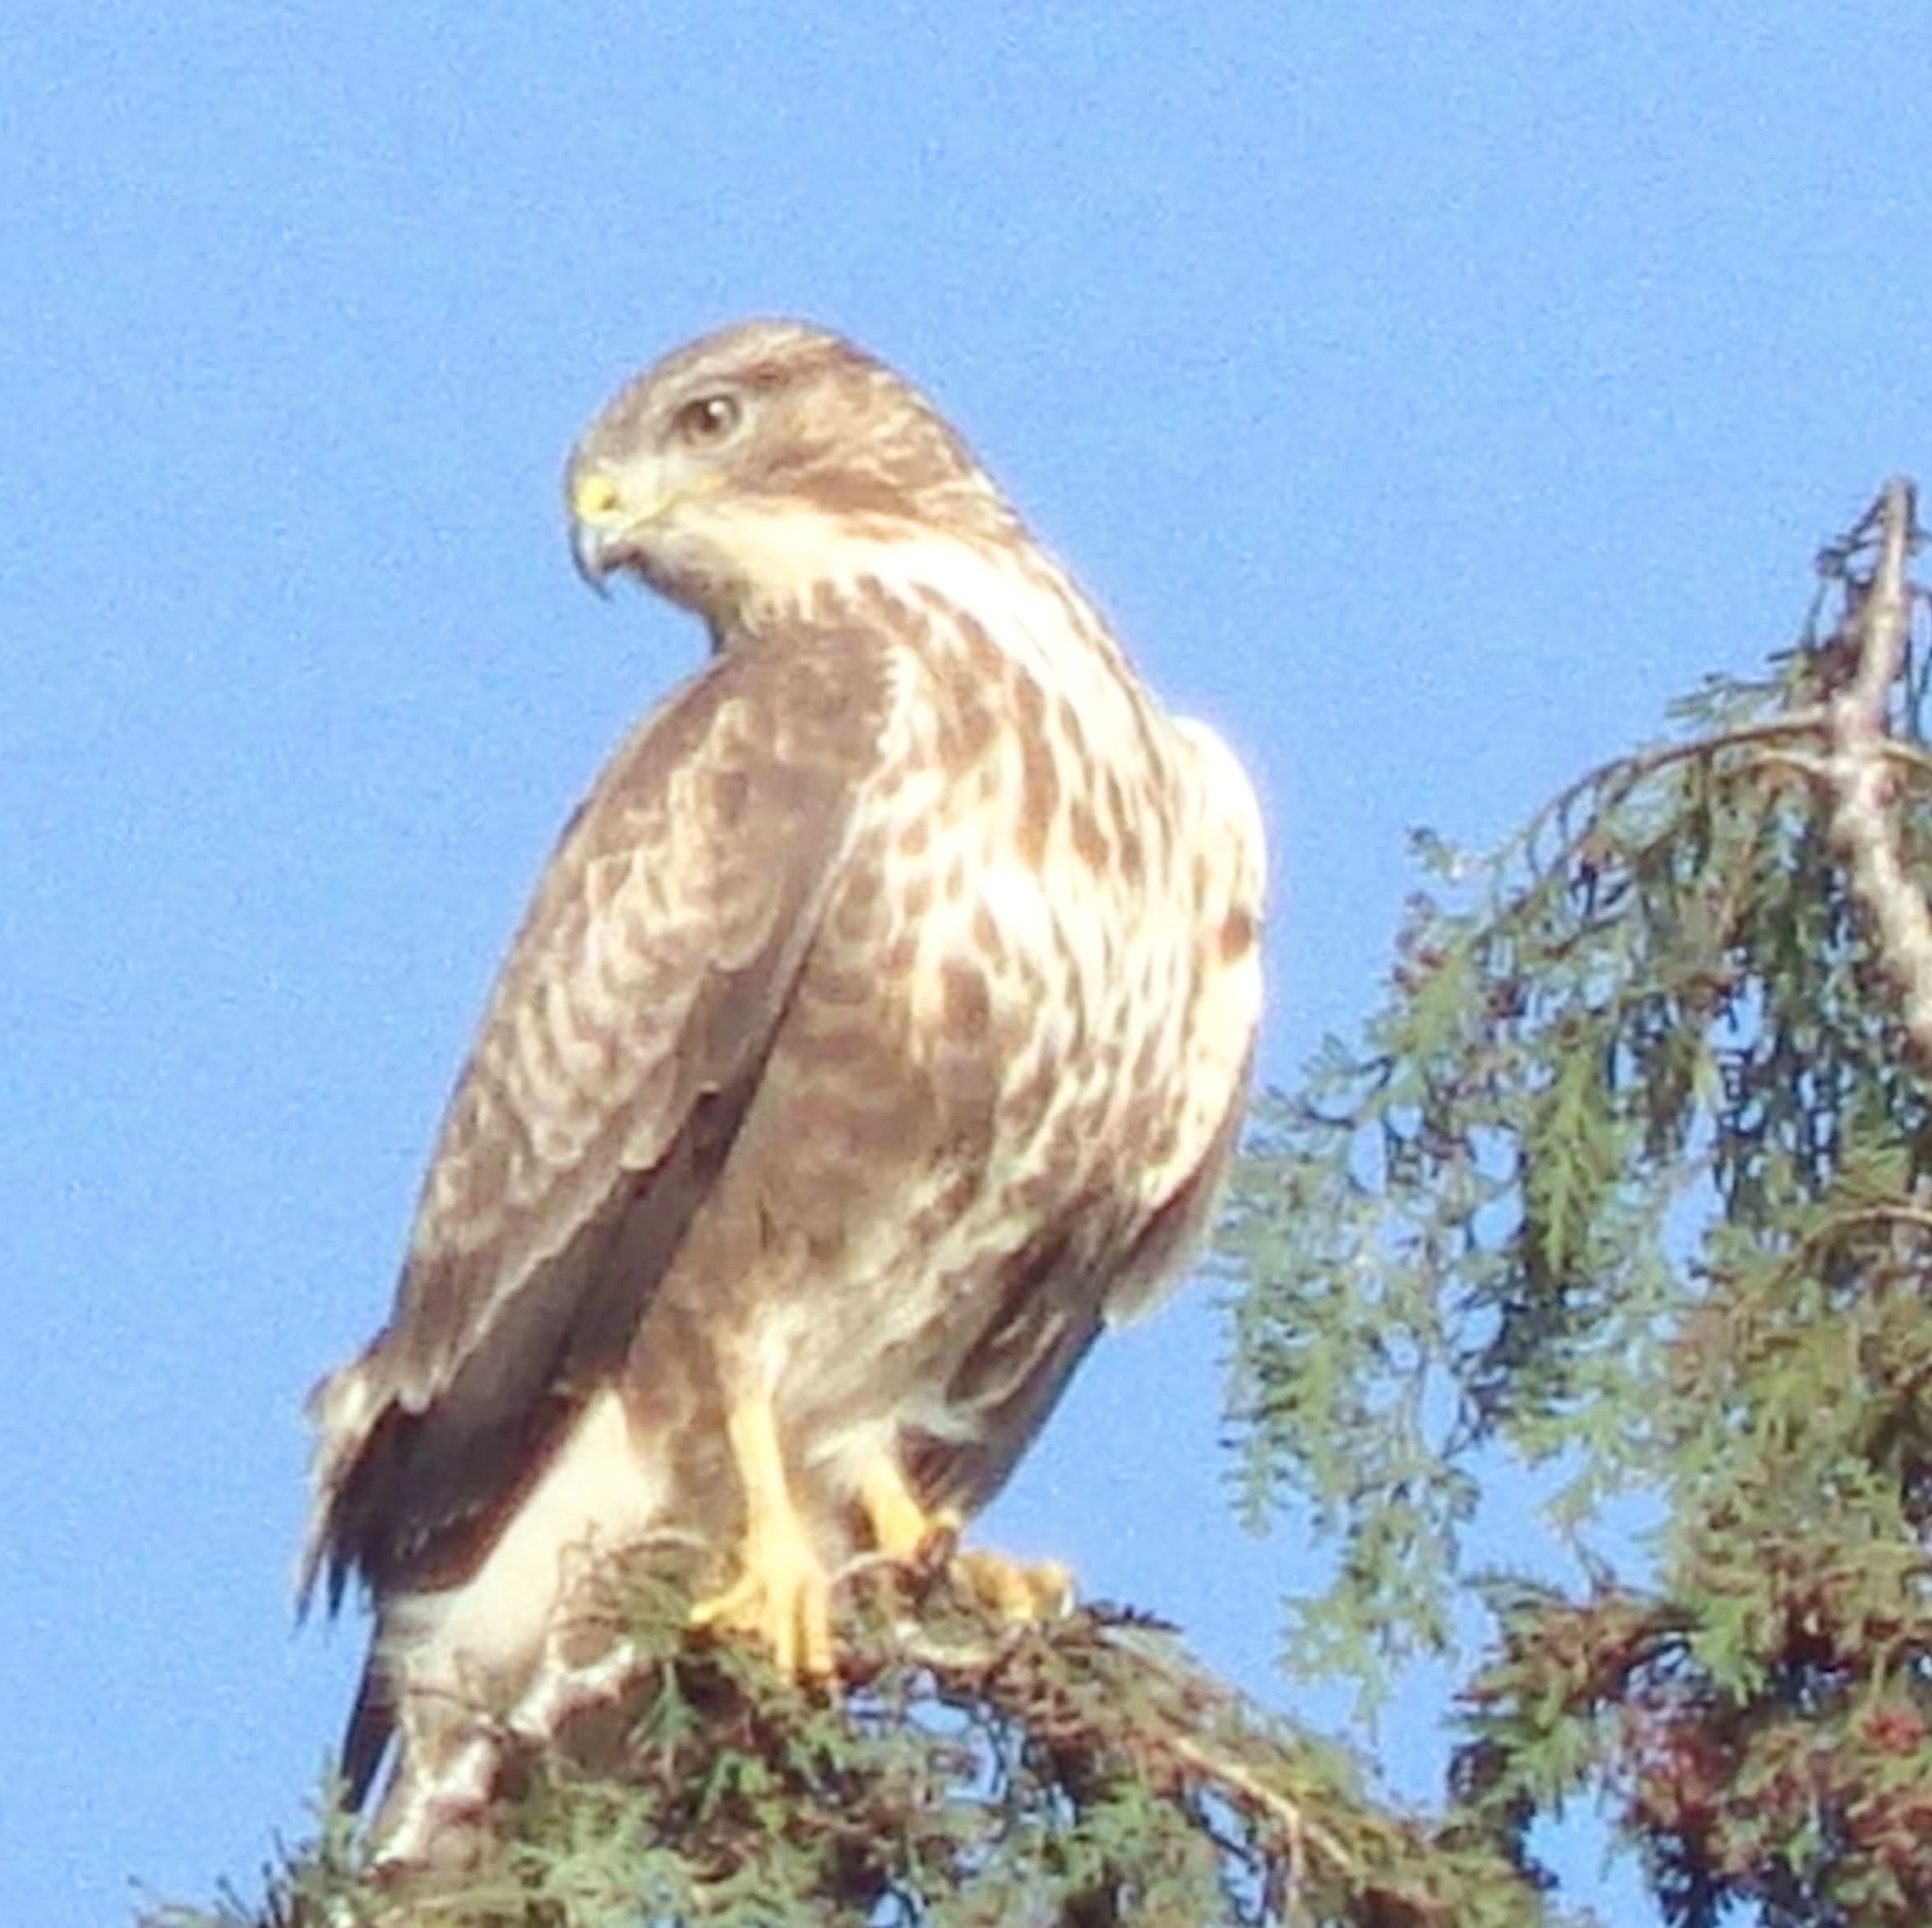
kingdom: Animalia
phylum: Chordata
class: Aves
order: Accipitriformes
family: Accipitridae
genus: Buteo
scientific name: Buteo buteo
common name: Common buzzard
